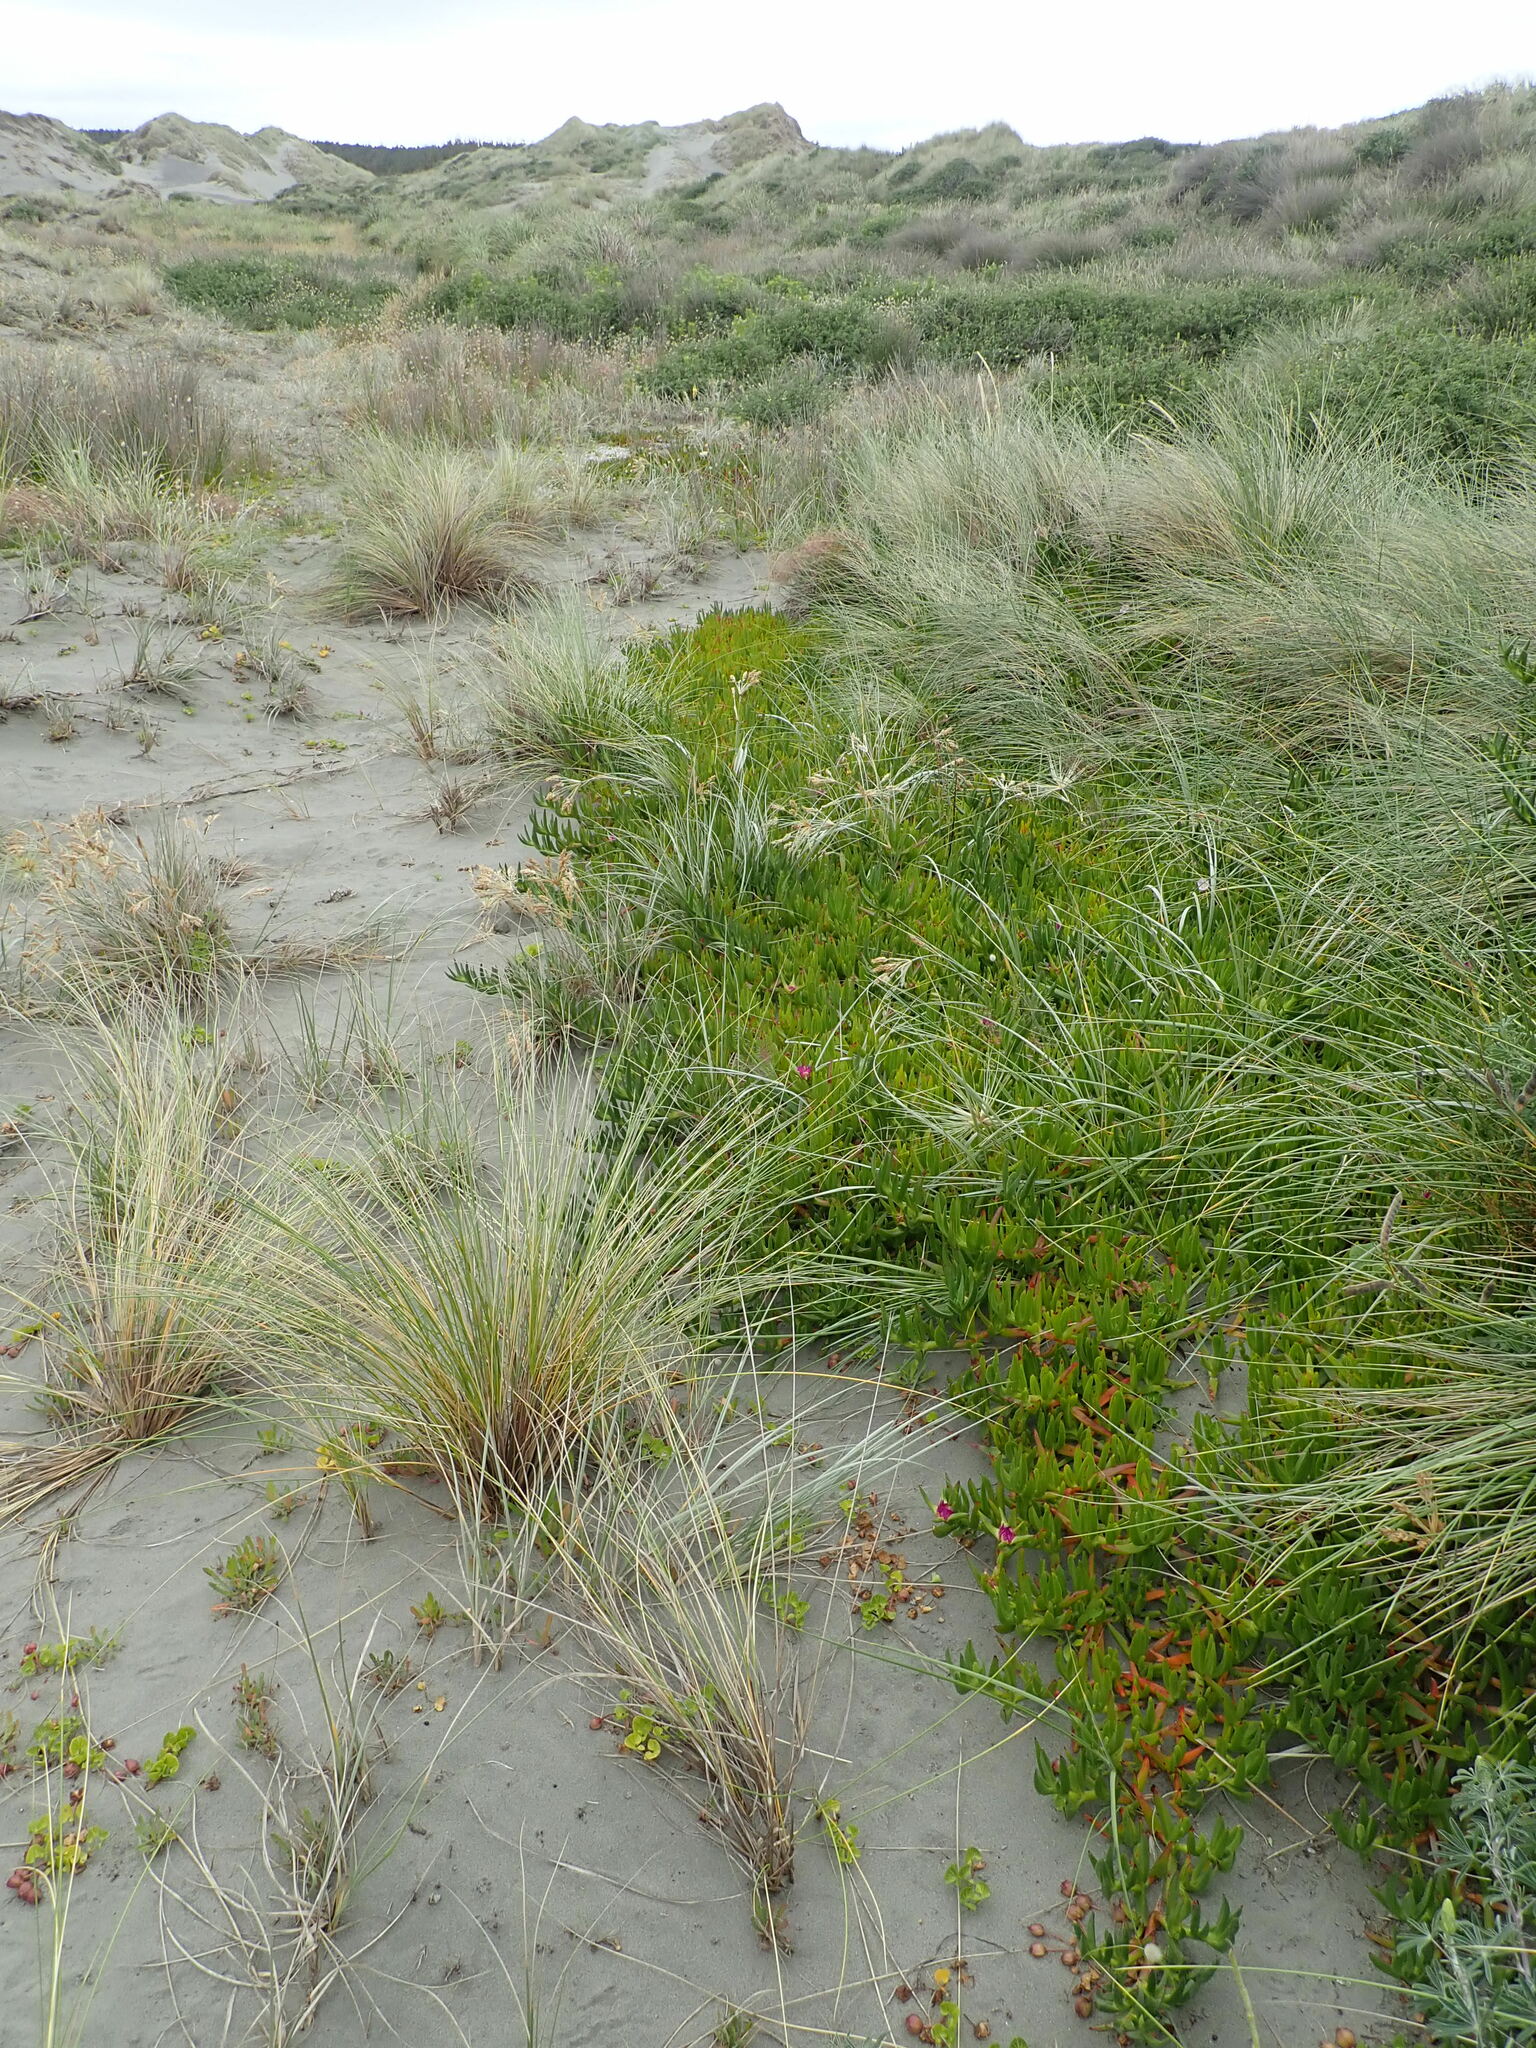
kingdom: Plantae
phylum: Tracheophyta
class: Magnoliopsida
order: Caryophyllales
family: Aizoaceae
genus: Carpobrotus
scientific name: Carpobrotus chilensis
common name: Sea fig
